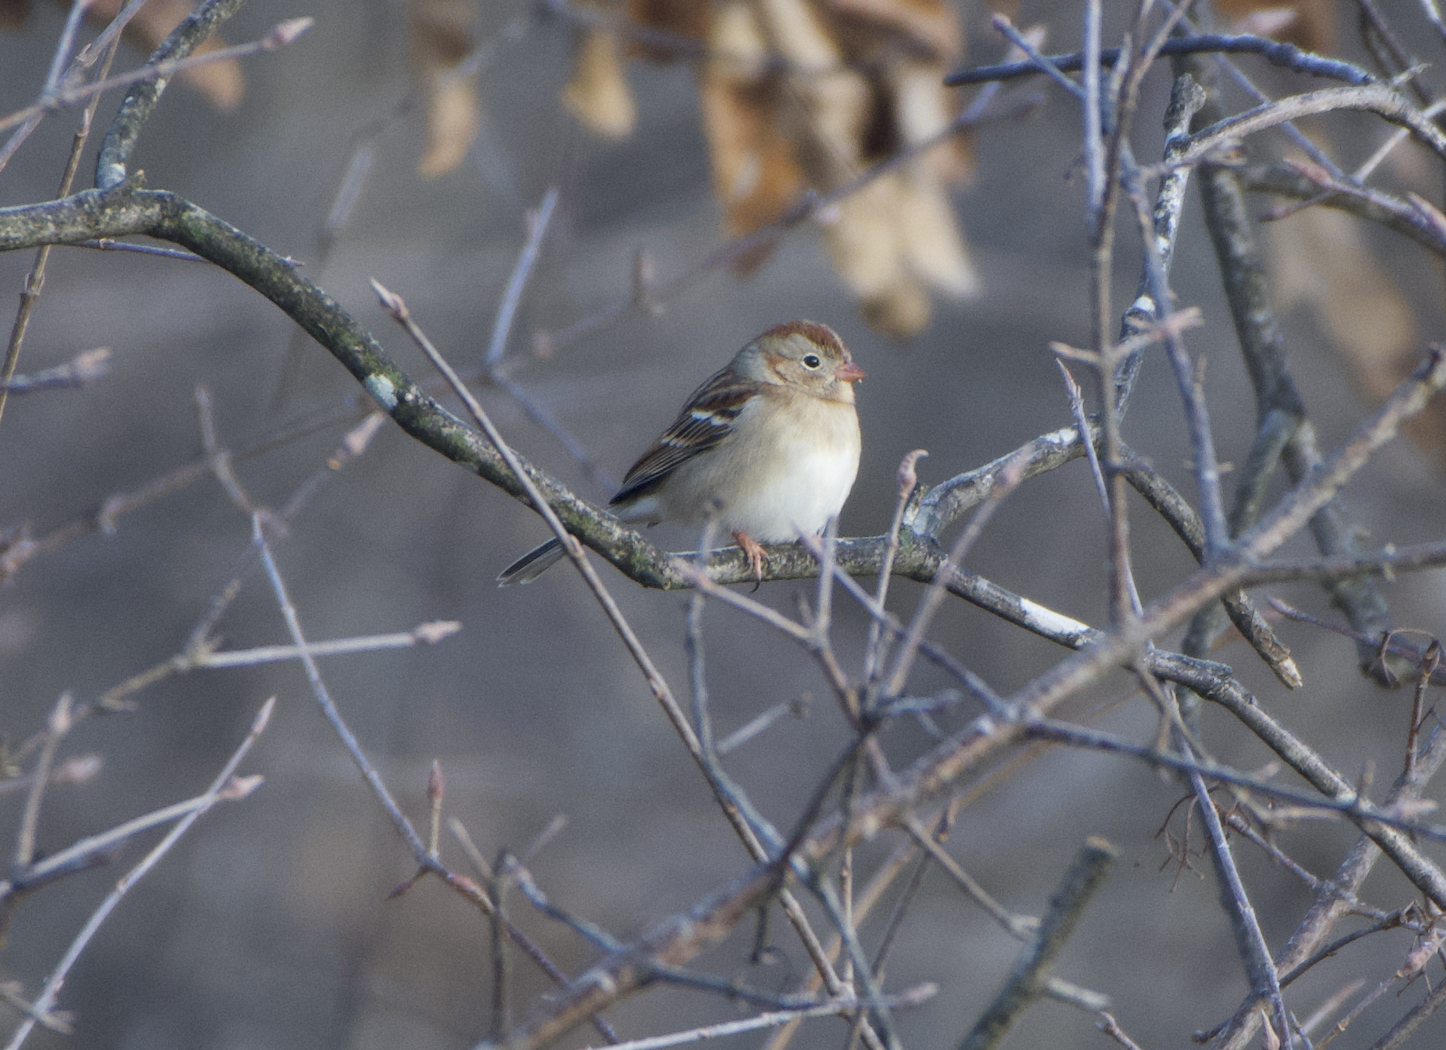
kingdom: Animalia
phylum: Chordata
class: Aves
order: Passeriformes
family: Passerellidae
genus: Spizella
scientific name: Spizella pusilla
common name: Field sparrow
